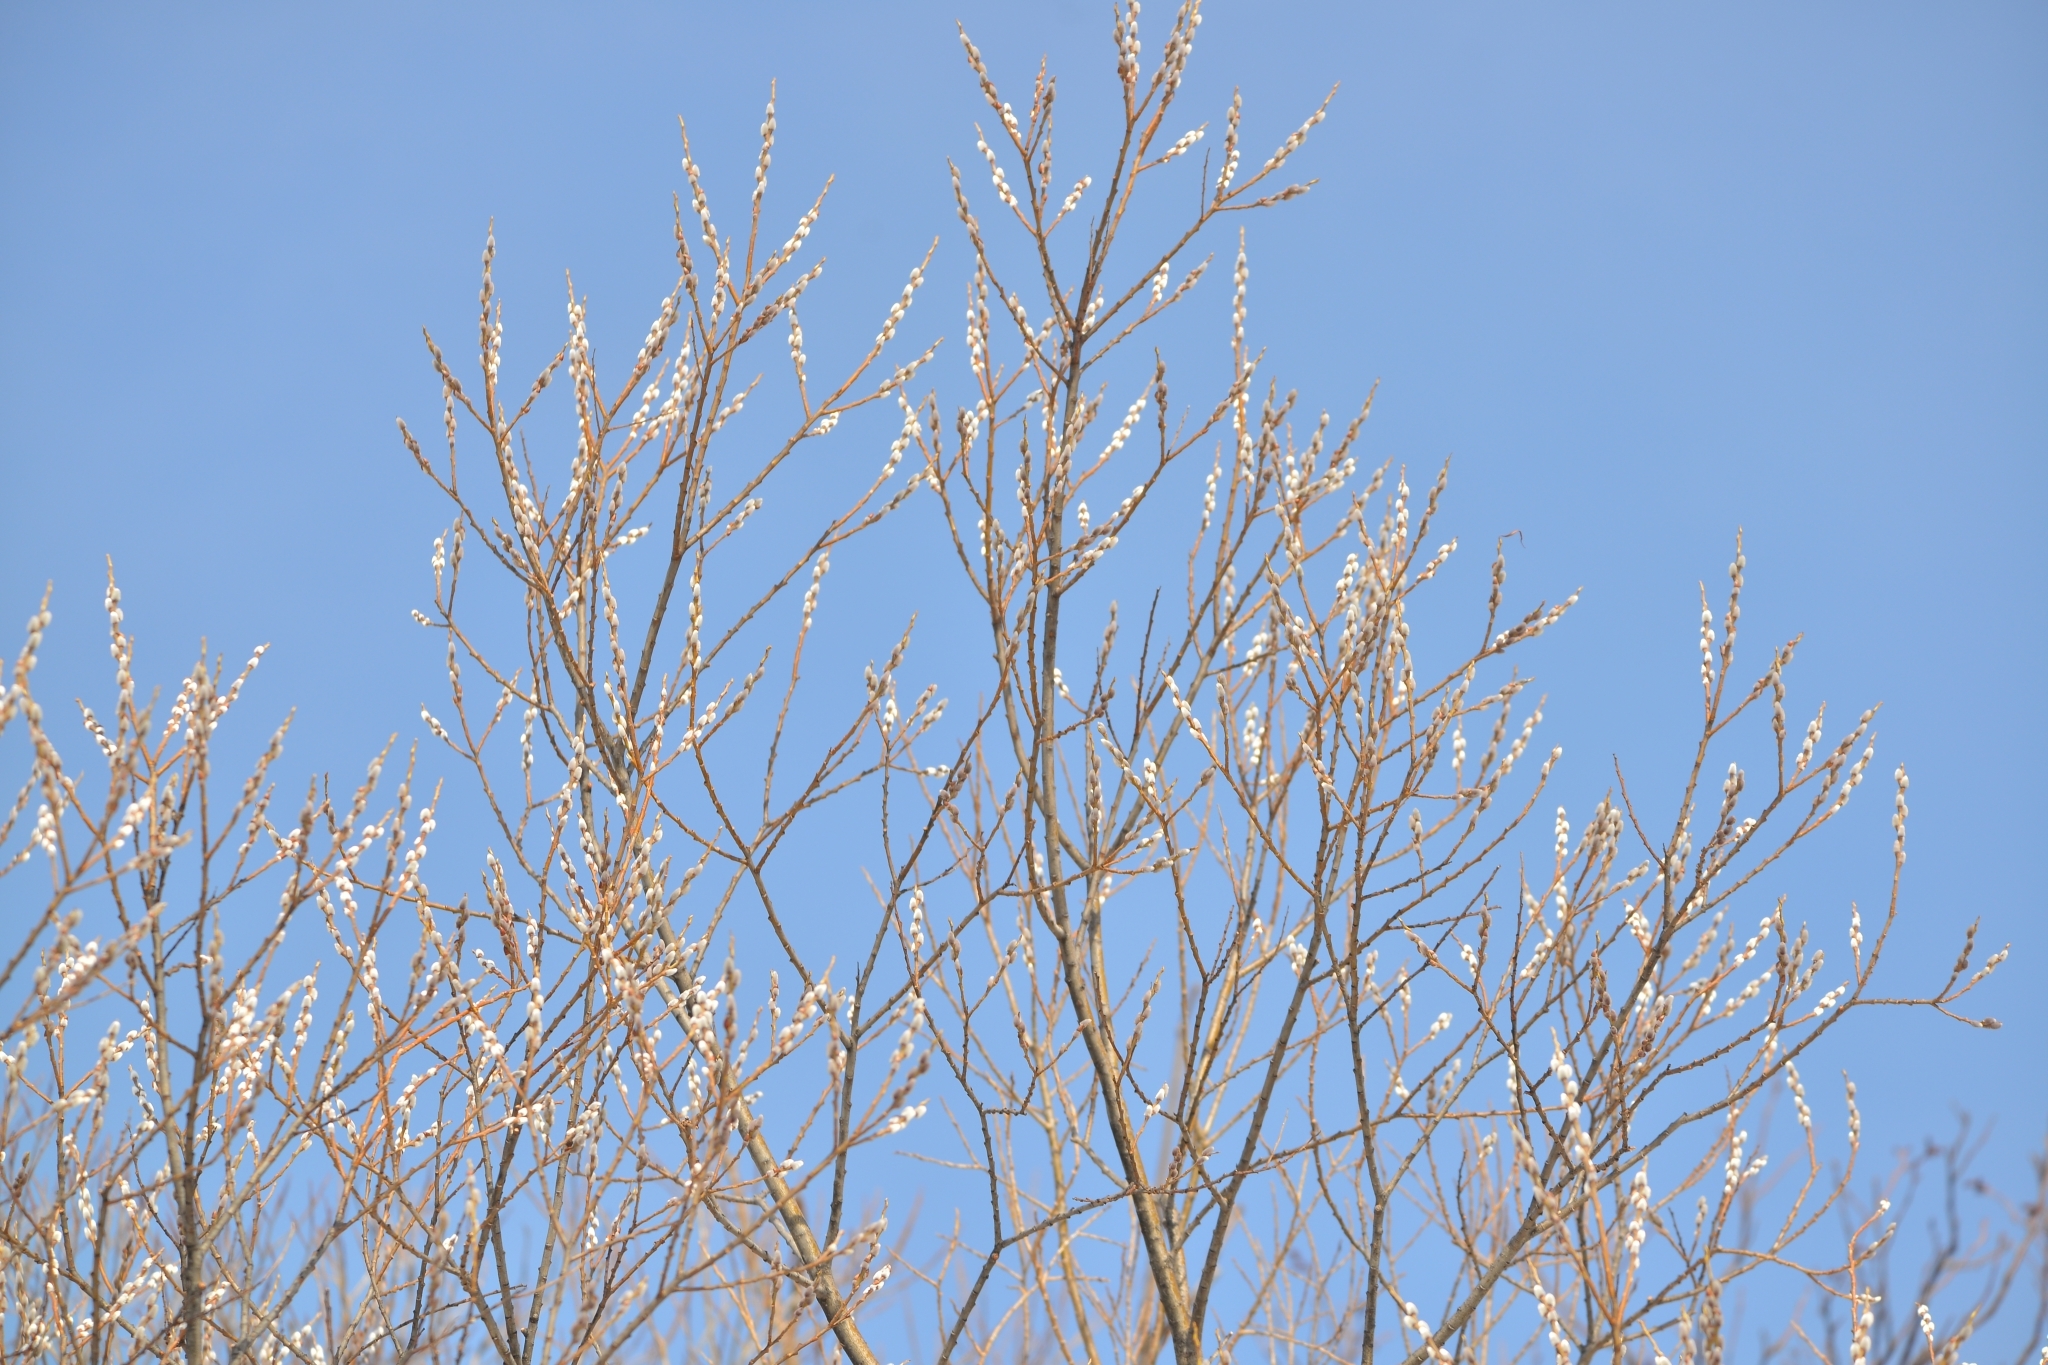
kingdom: Plantae
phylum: Tracheophyta
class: Magnoliopsida
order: Malpighiales
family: Salicaceae
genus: Salix
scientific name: Salix udensis
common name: Sachalin willow
